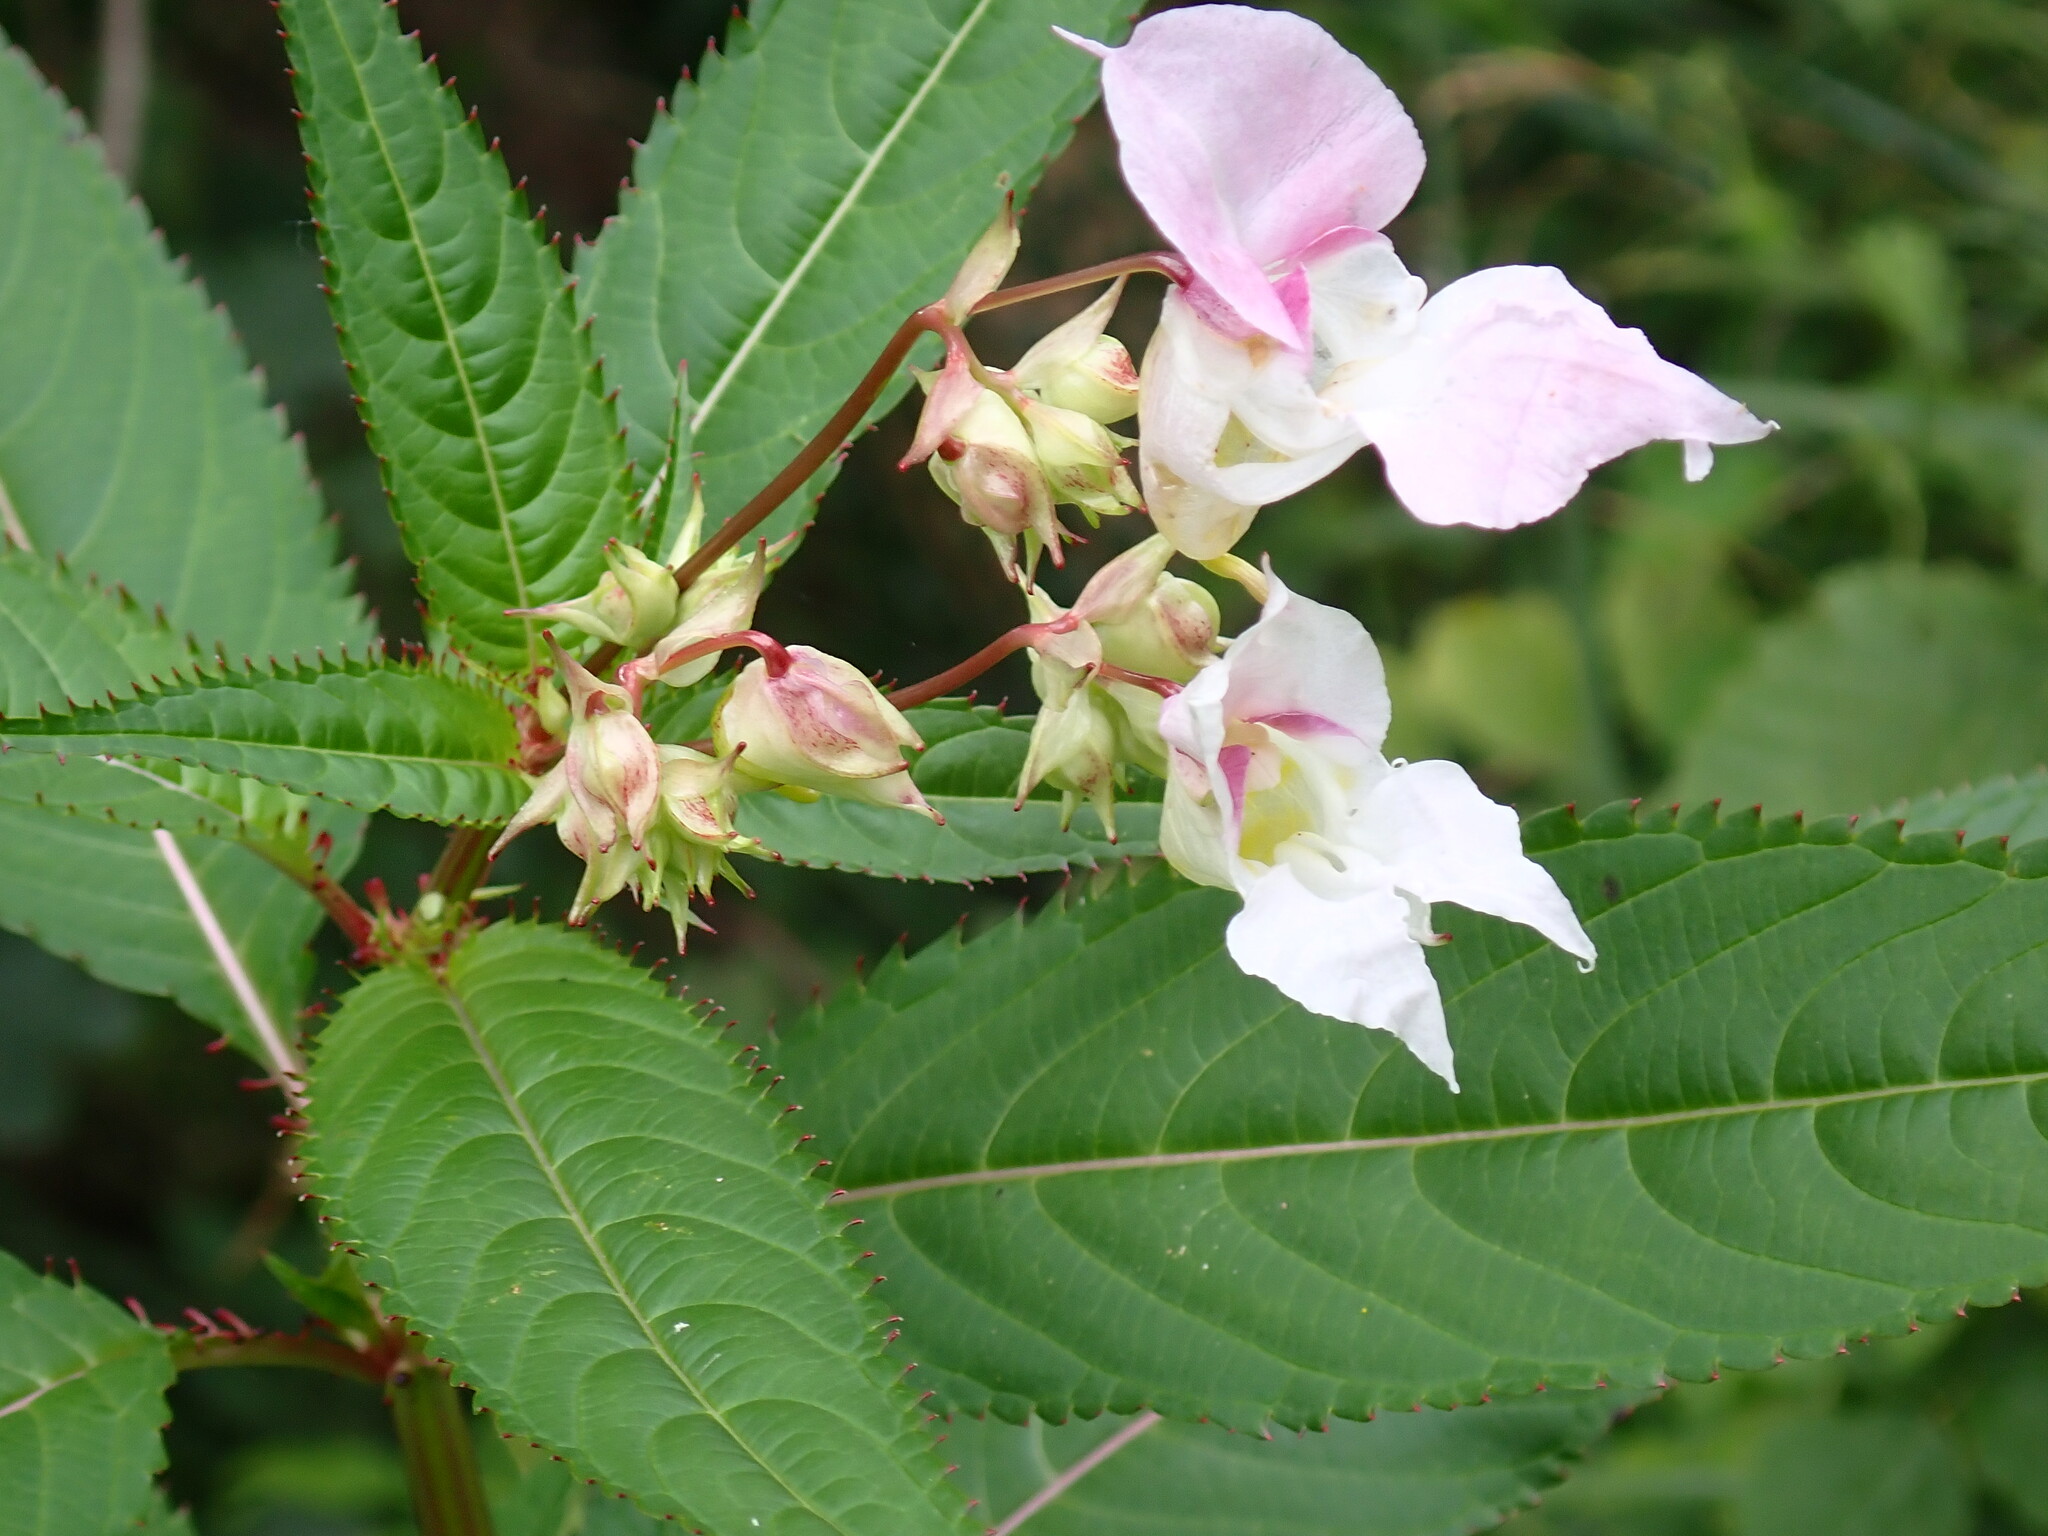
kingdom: Plantae
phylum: Tracheophyta
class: Magnoliopsida
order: Ericales
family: Balsaminaceae
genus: Impatiens
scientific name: Impatiens glandulifera
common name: Himalayan balsam
